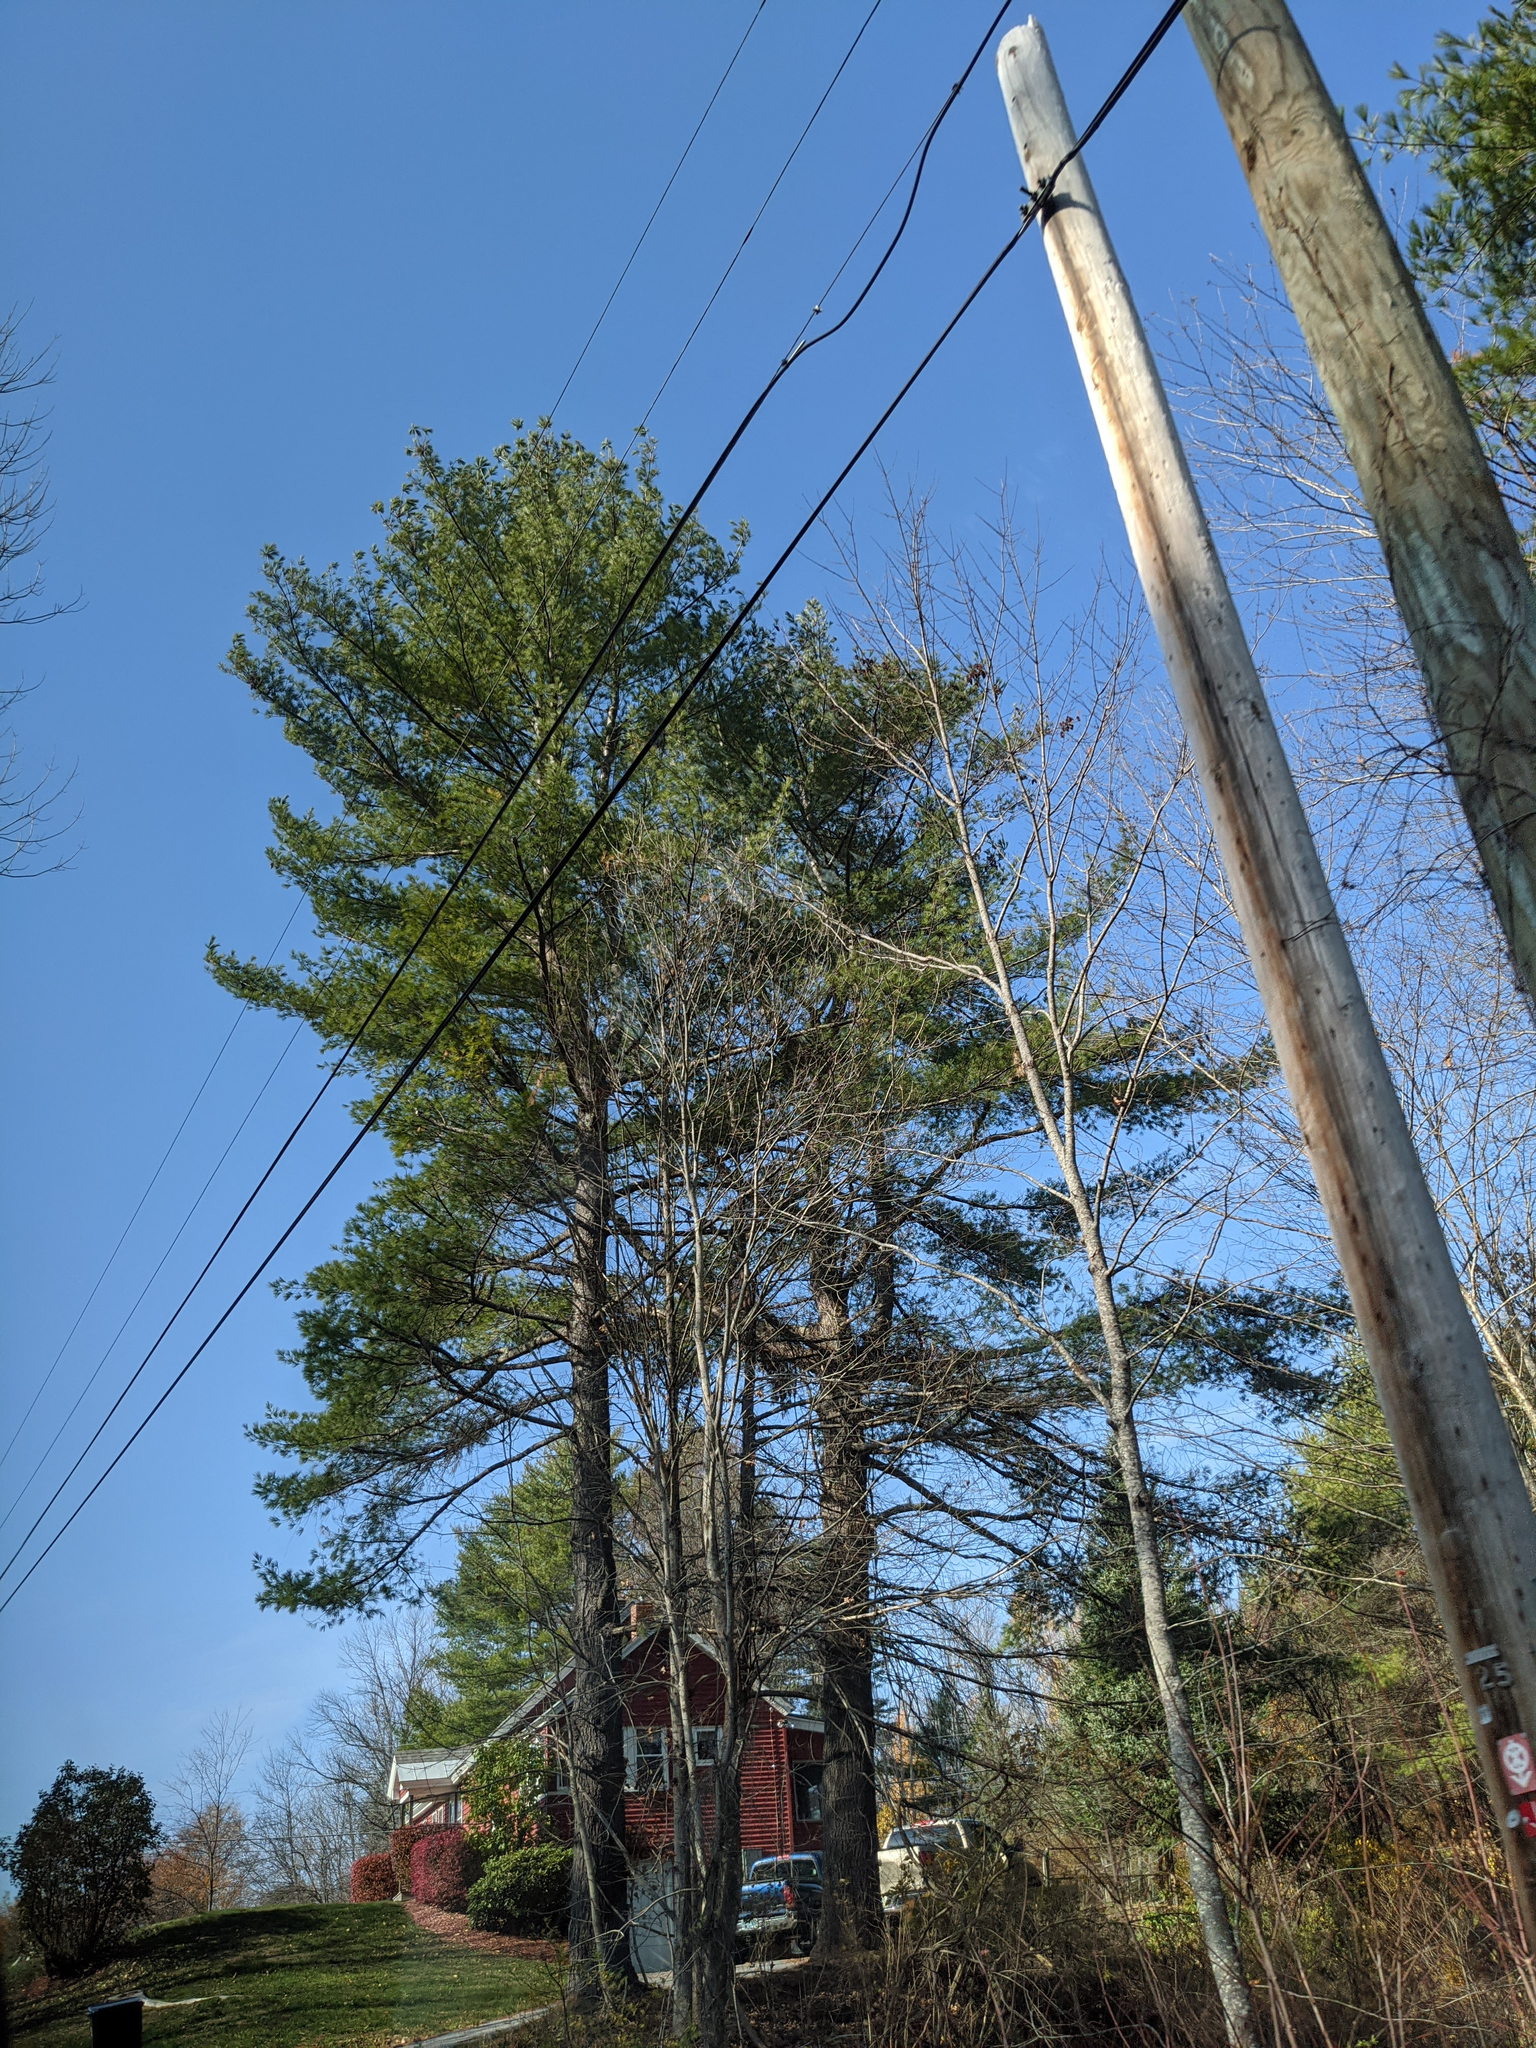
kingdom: Plantae
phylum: Tracheophyta
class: Pinopsida
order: Pinales
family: Pinaceae
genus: Pinus
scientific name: Pinus strobus
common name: Weymouth pine
